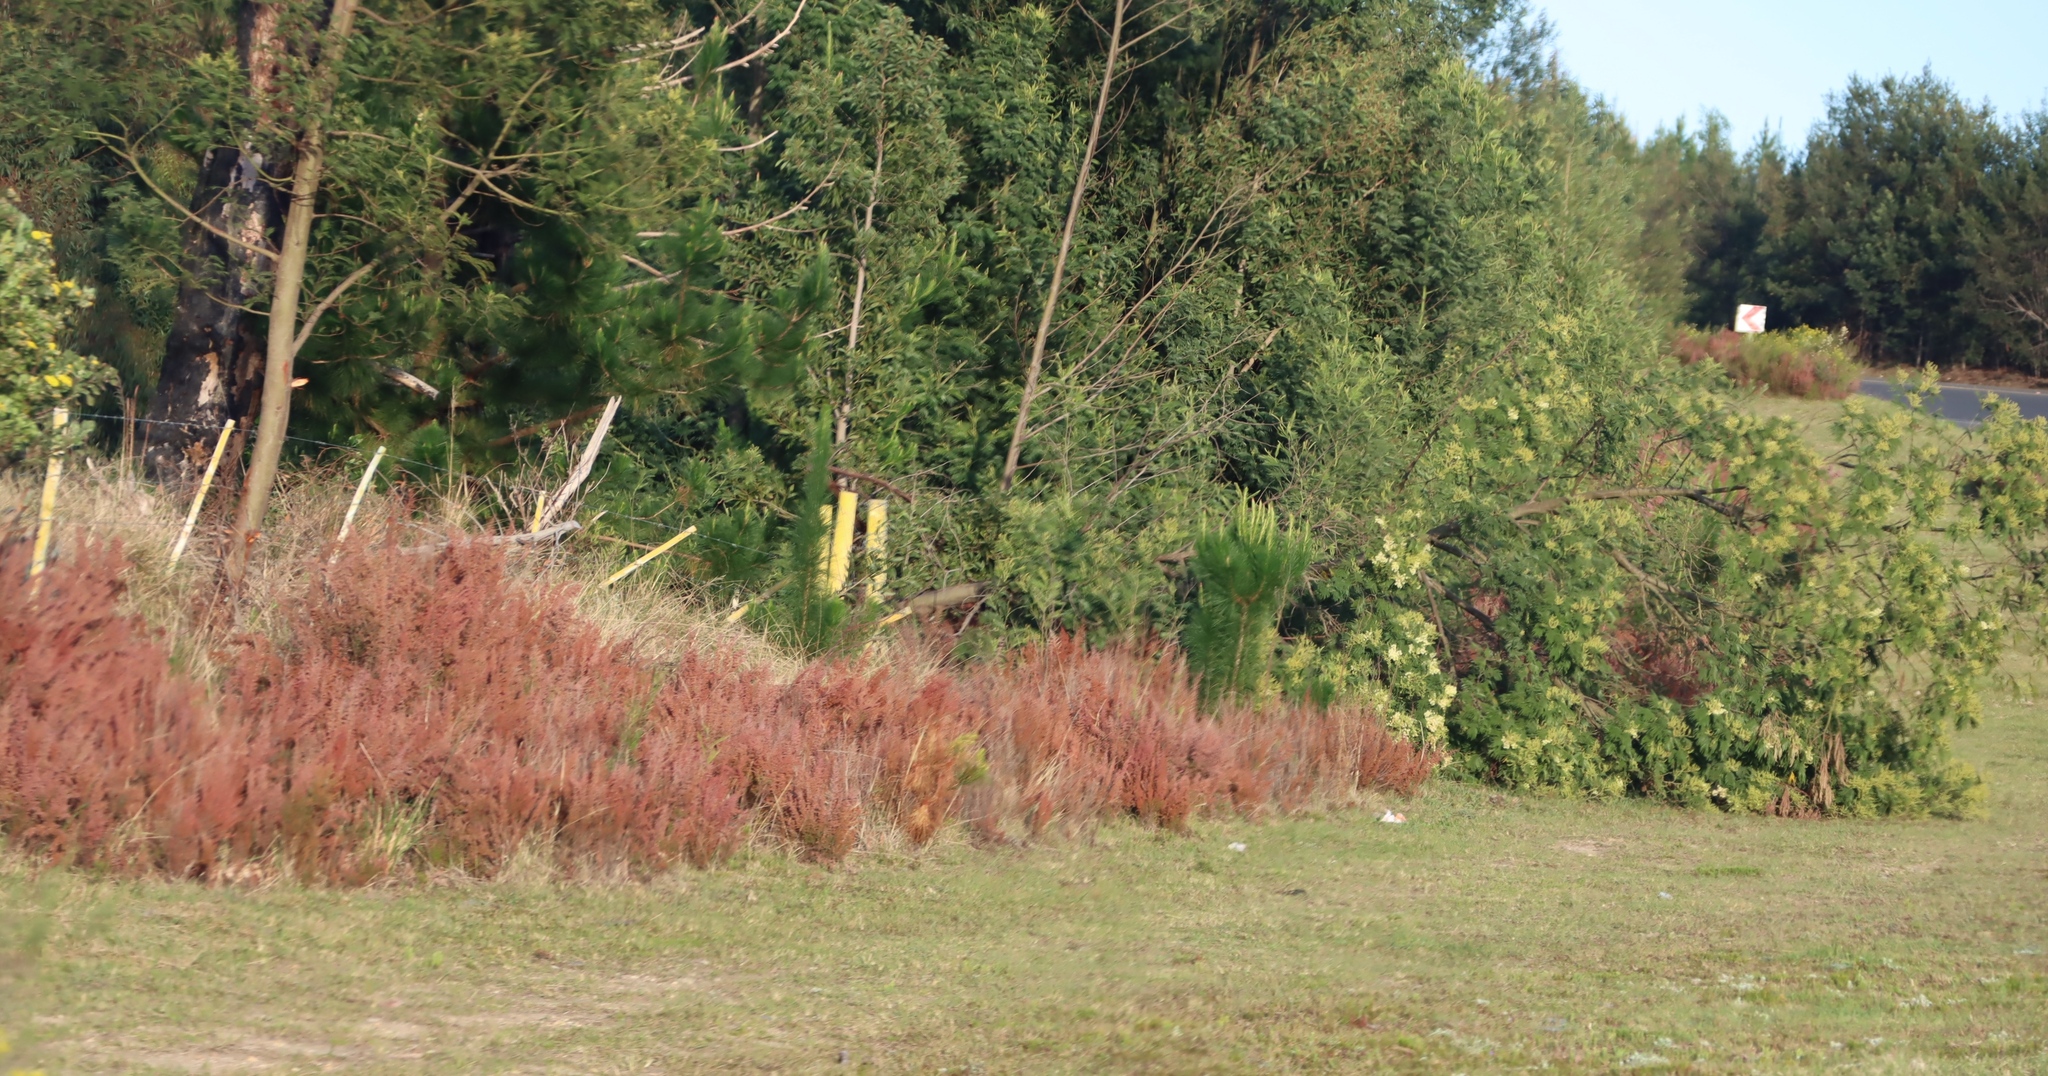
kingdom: Plantae
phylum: Tracheophyta
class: Magnoliopsida
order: Fabales
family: Fabaceae
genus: Acacia
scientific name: Acacia mearnsii
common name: Black wattle
